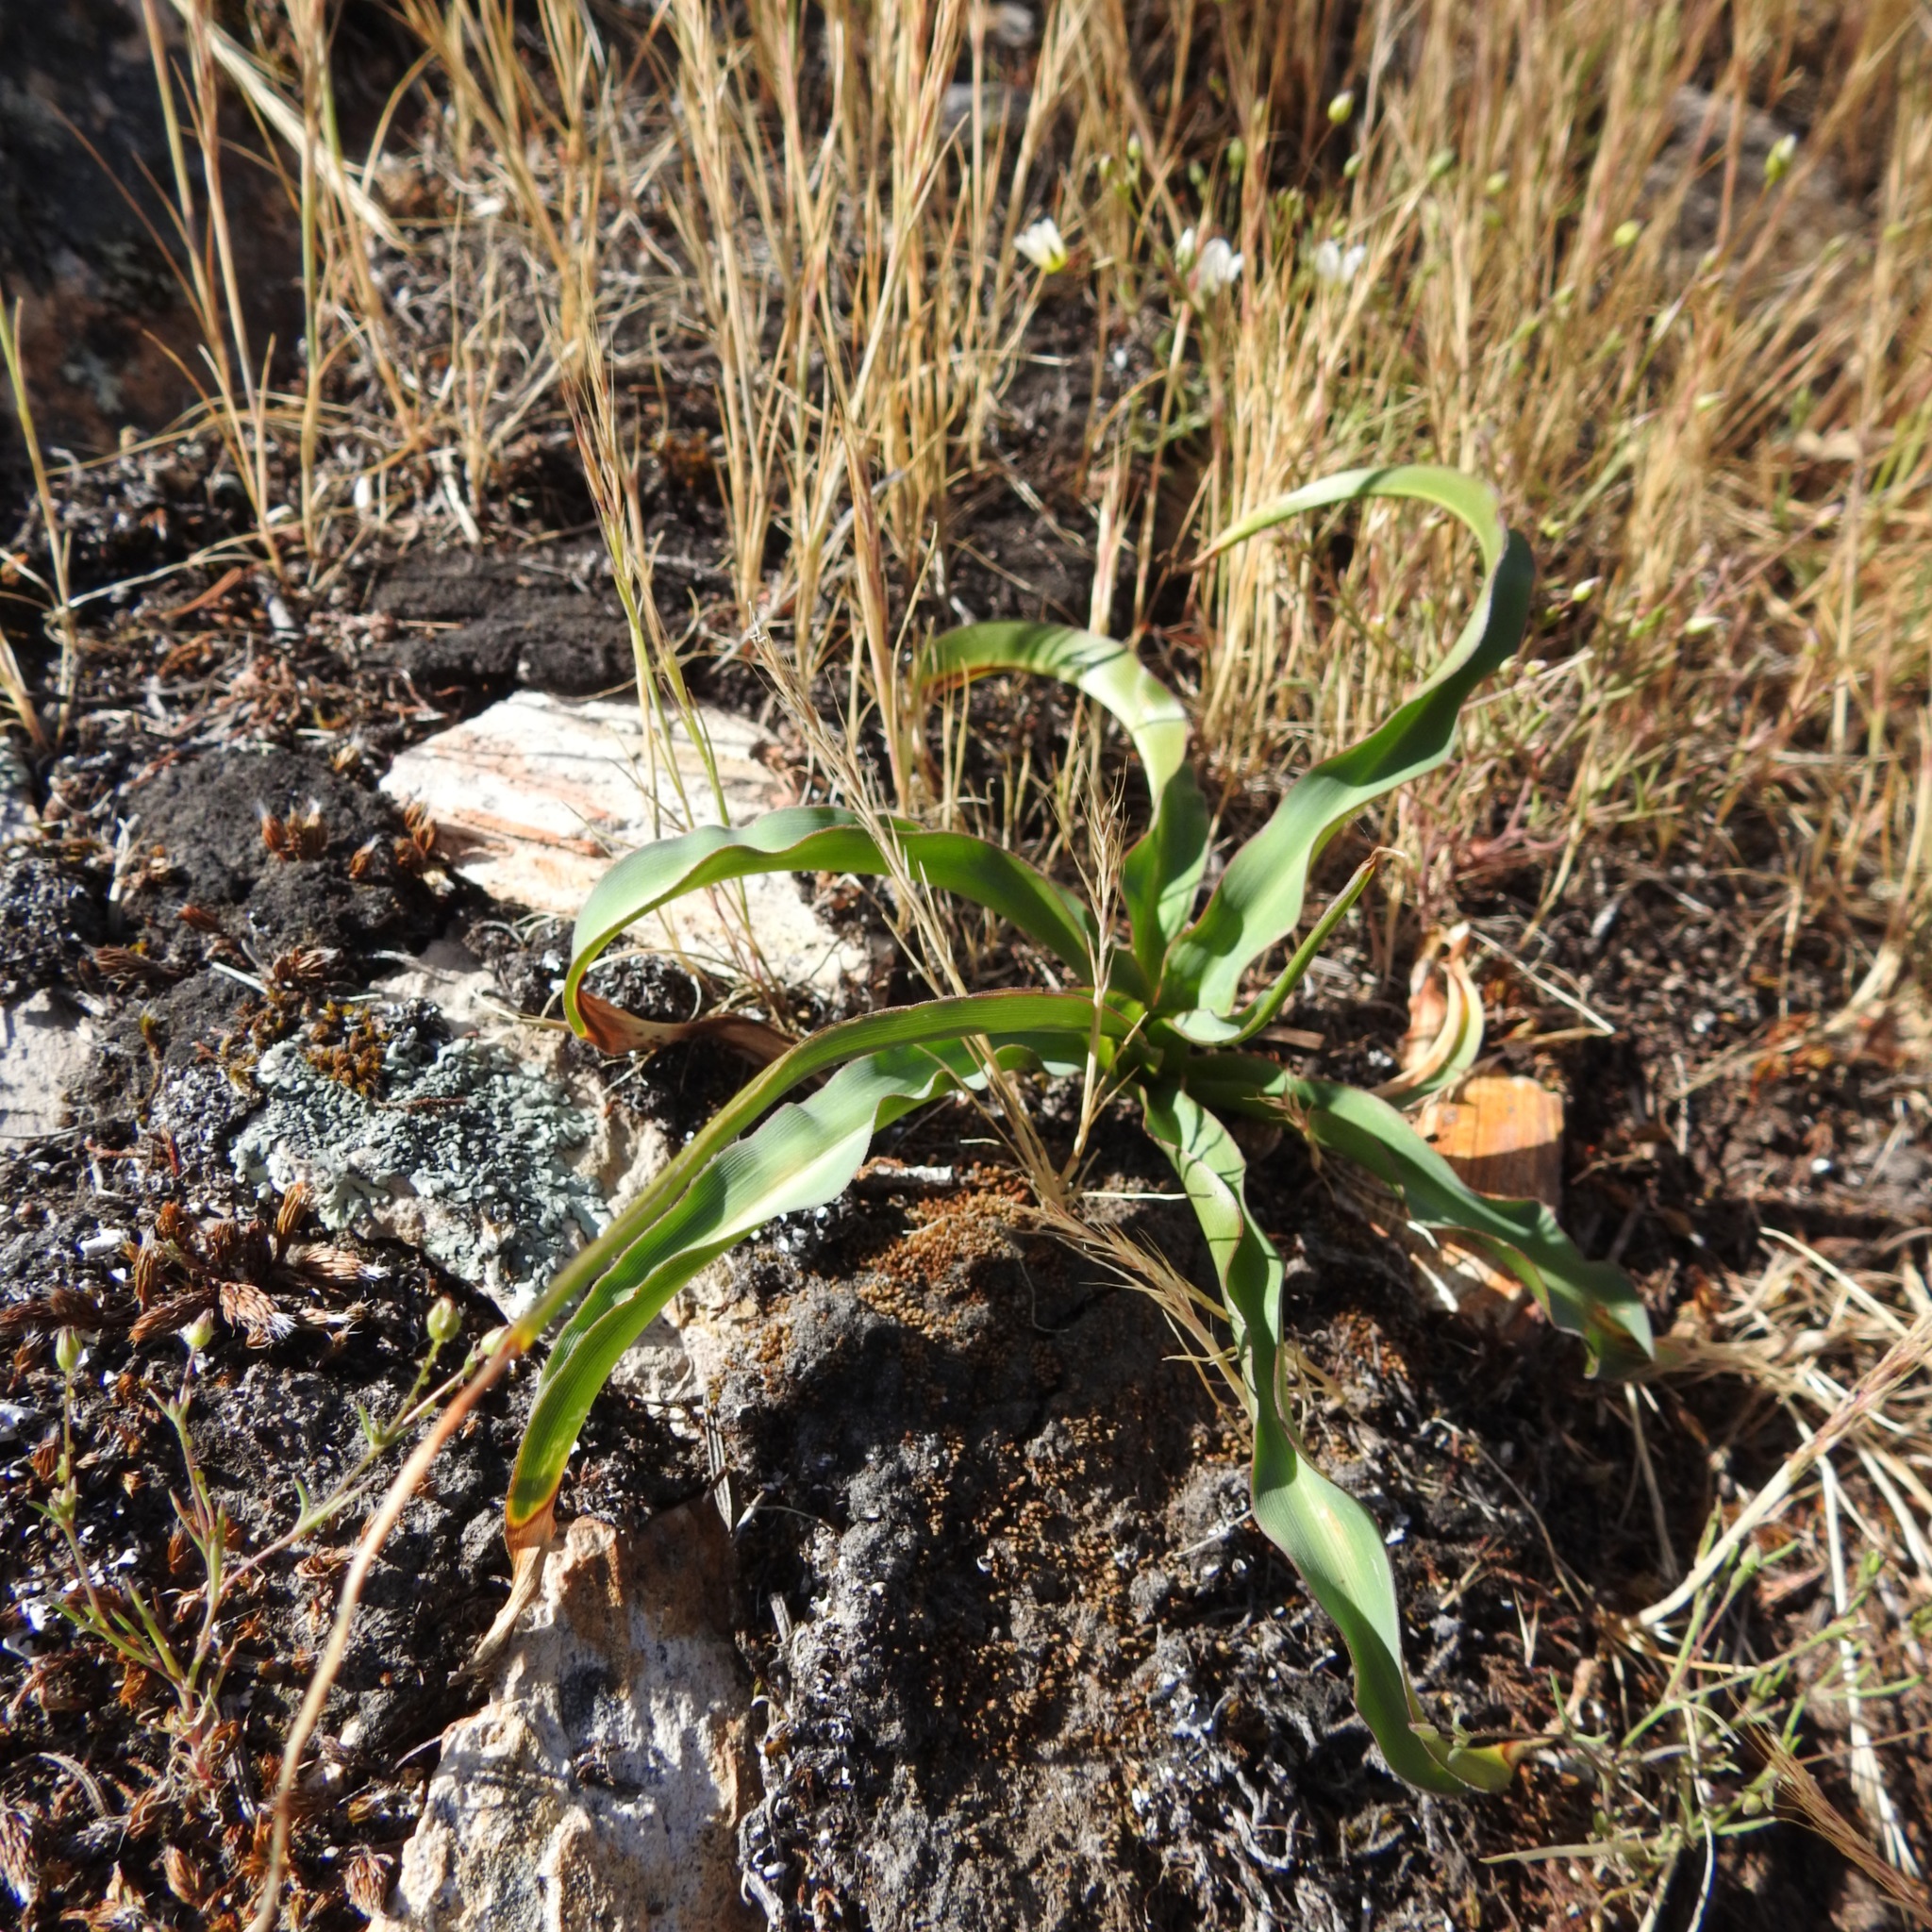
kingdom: Plantae
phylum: Tracheophyta
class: Liliopsida
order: Asparagales
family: Asparagaceae
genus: Chlorogalum
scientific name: Chlorogalum pomeridianum
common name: Amole
